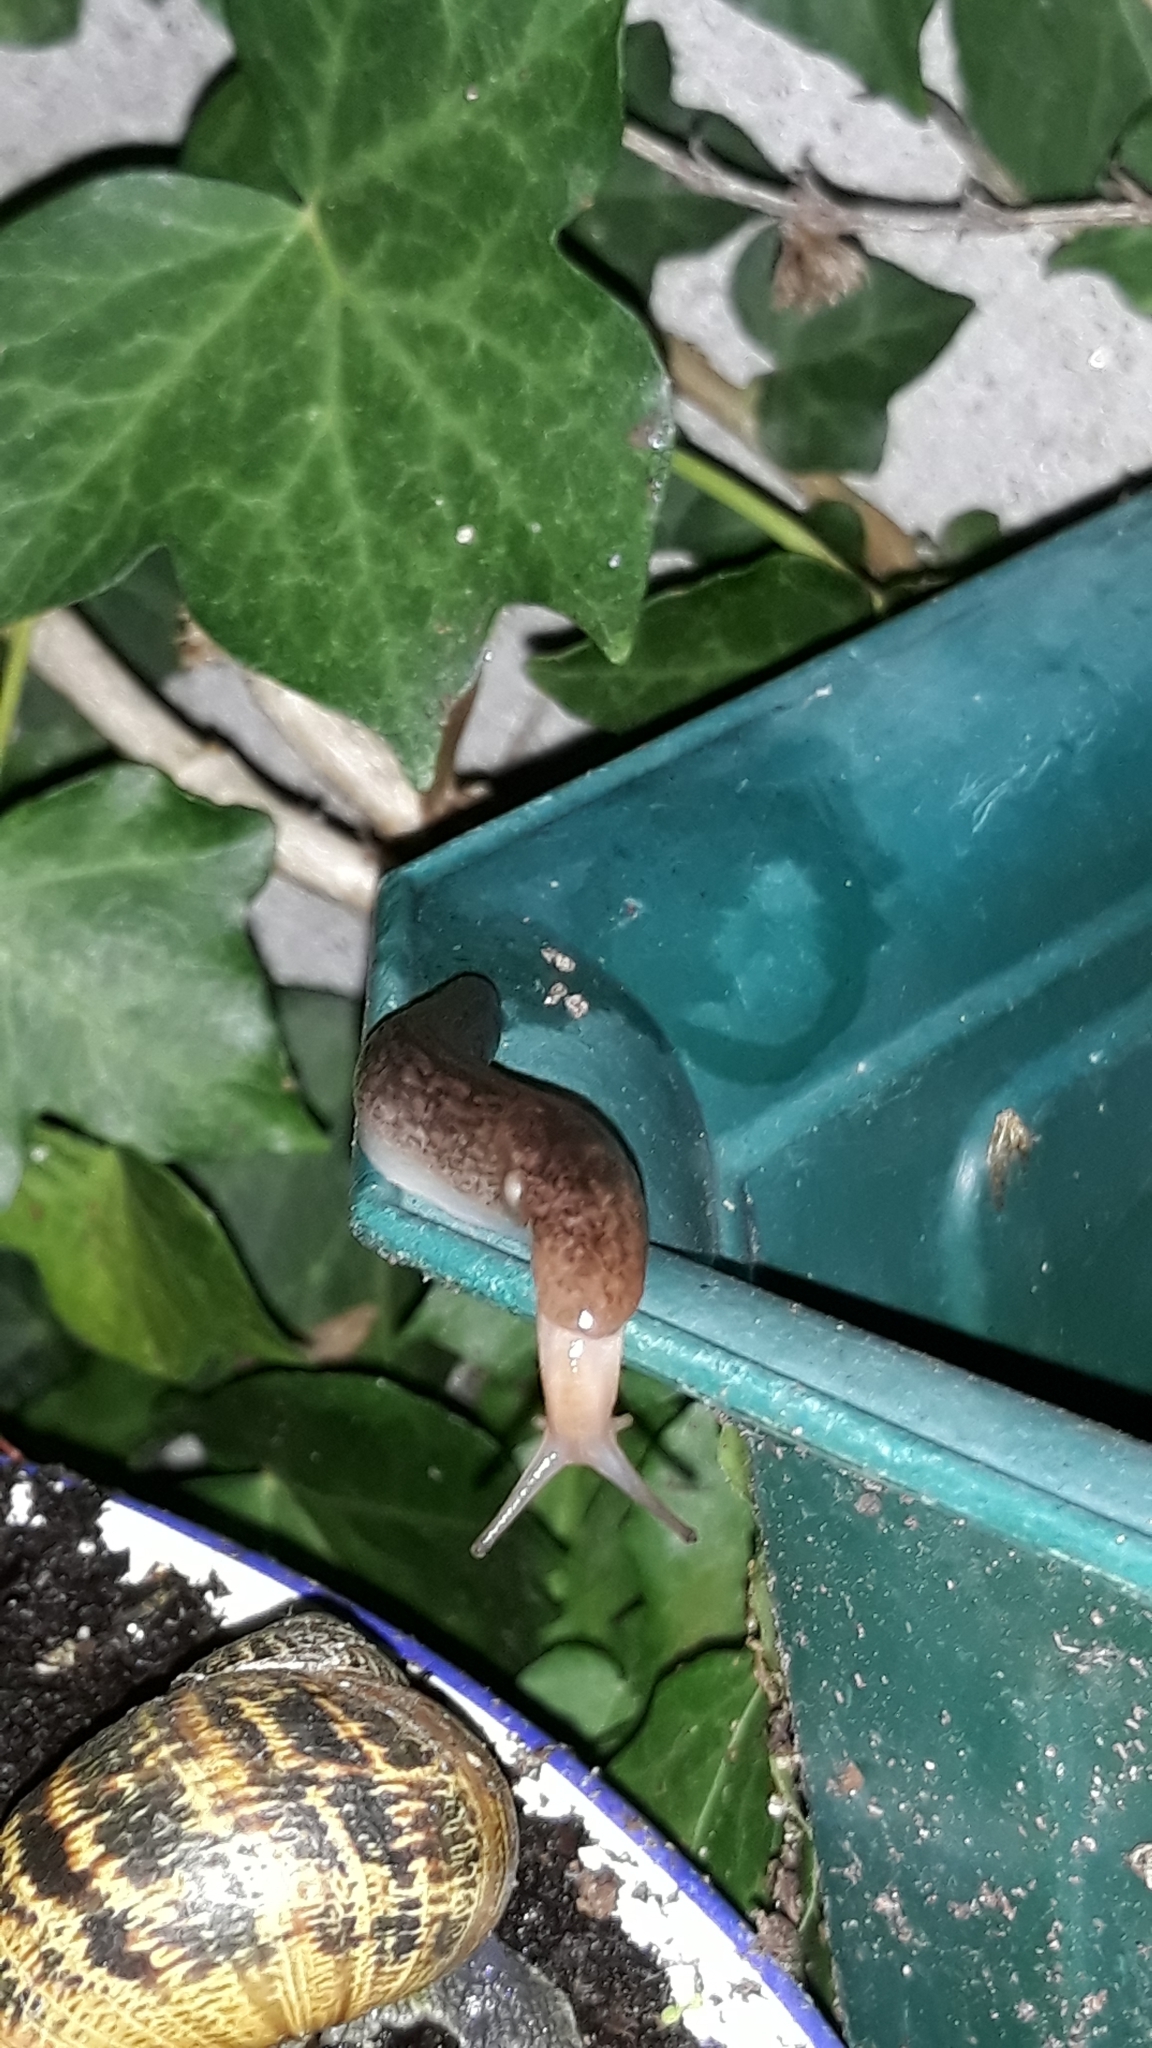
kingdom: Animalia
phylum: Mollusca
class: Gastropoda
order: Stylommatophora
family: Limacidae
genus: Limacus
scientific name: Limacus flavus
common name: Yellow gardenslug
